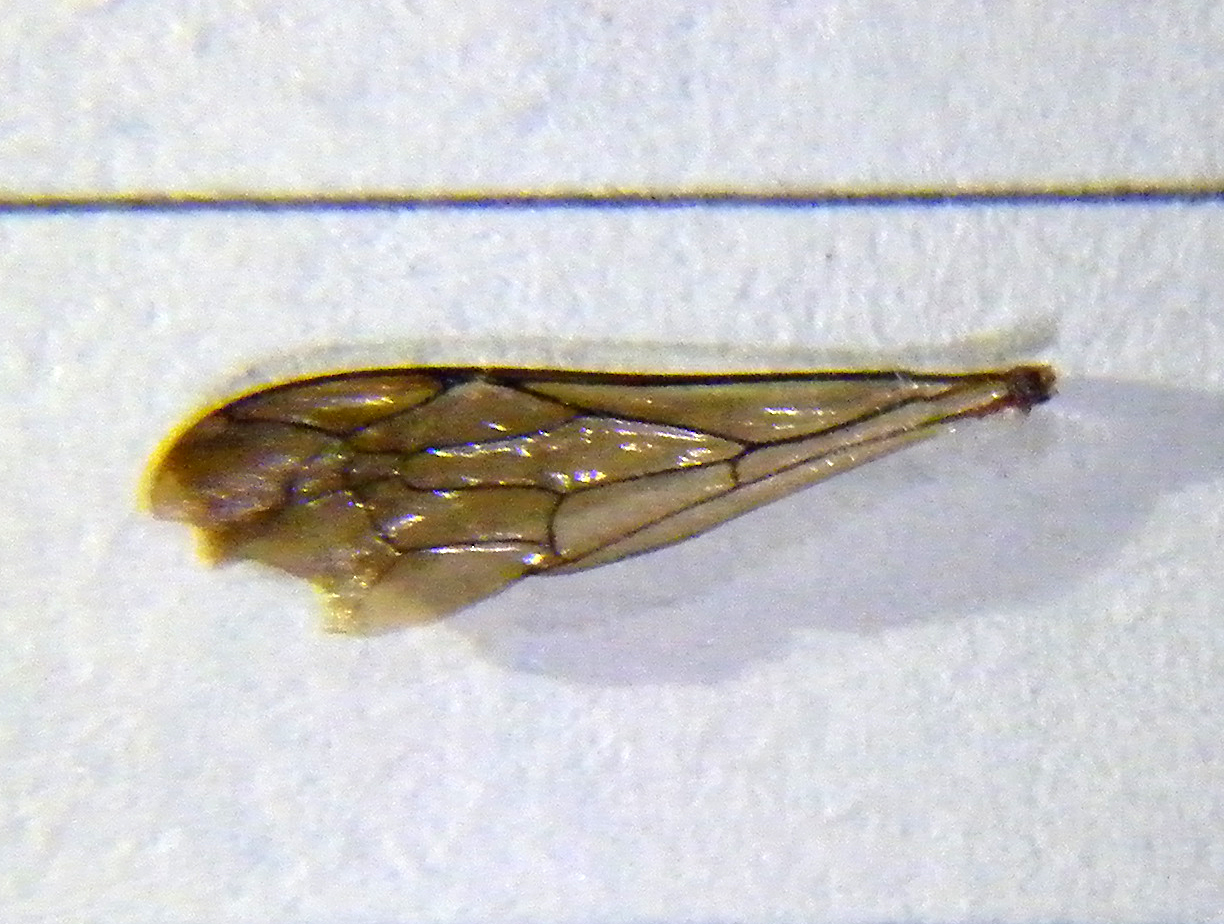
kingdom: Animalia
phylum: Arthropoda
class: Insecta
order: Hymenoptera
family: Crabronidae
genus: Nysson
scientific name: Nysson spinosus
